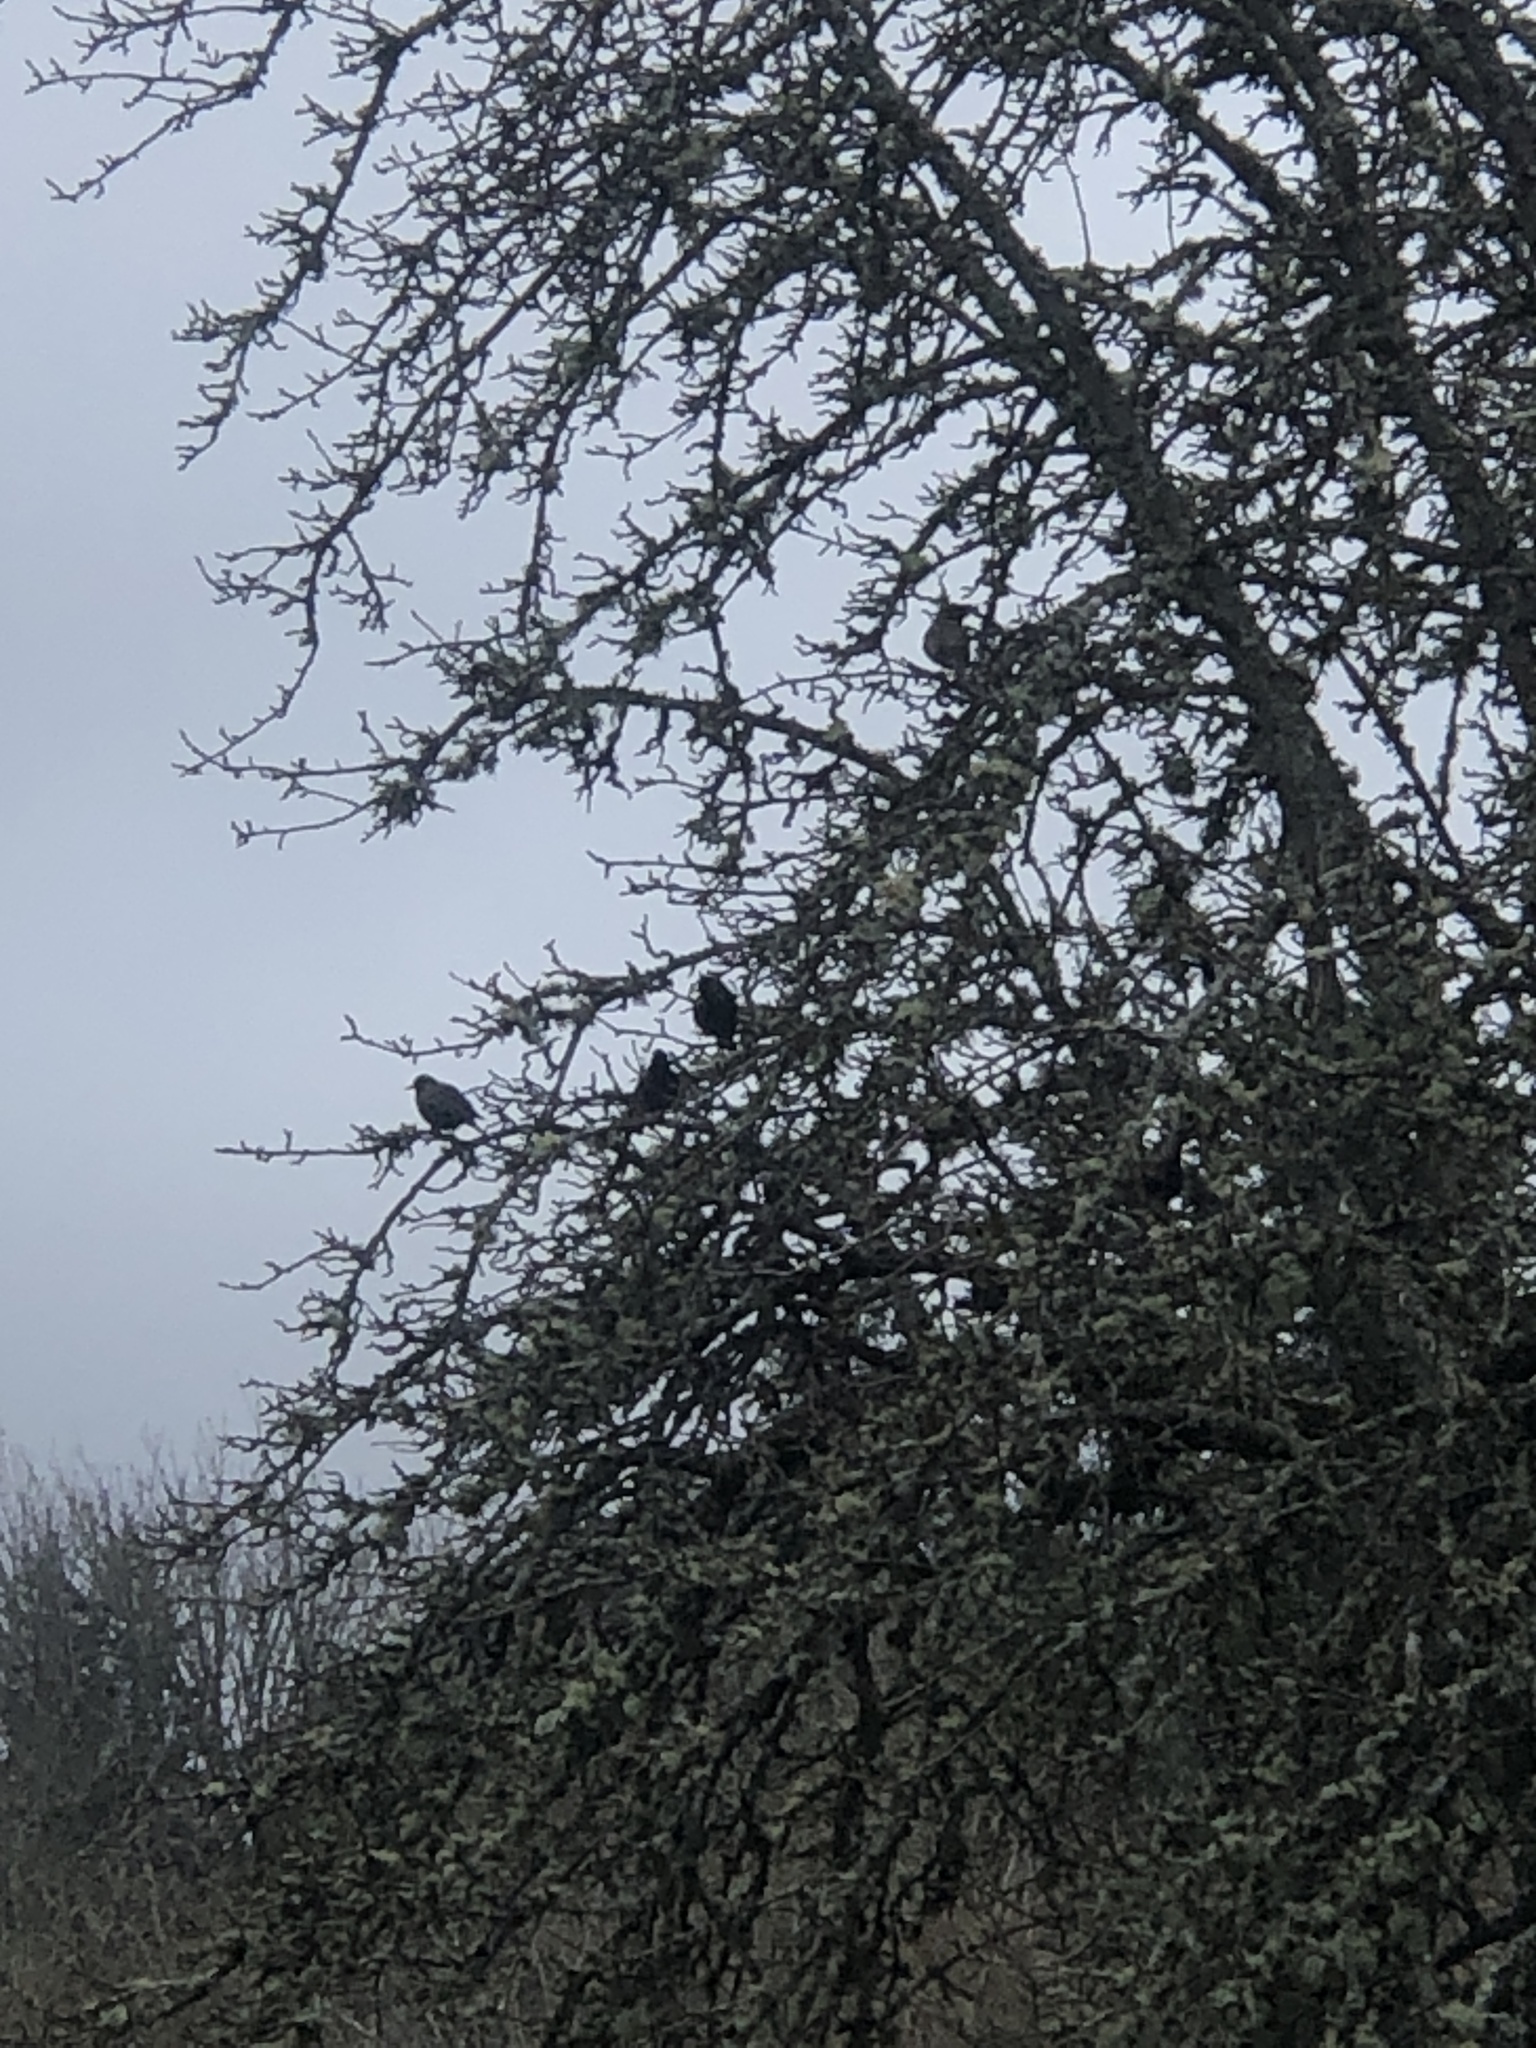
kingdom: Animalia
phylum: Chordata
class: Aves
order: Passeriformes
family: Turdidae
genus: Turdus
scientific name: Turdus migratorius
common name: American robin
